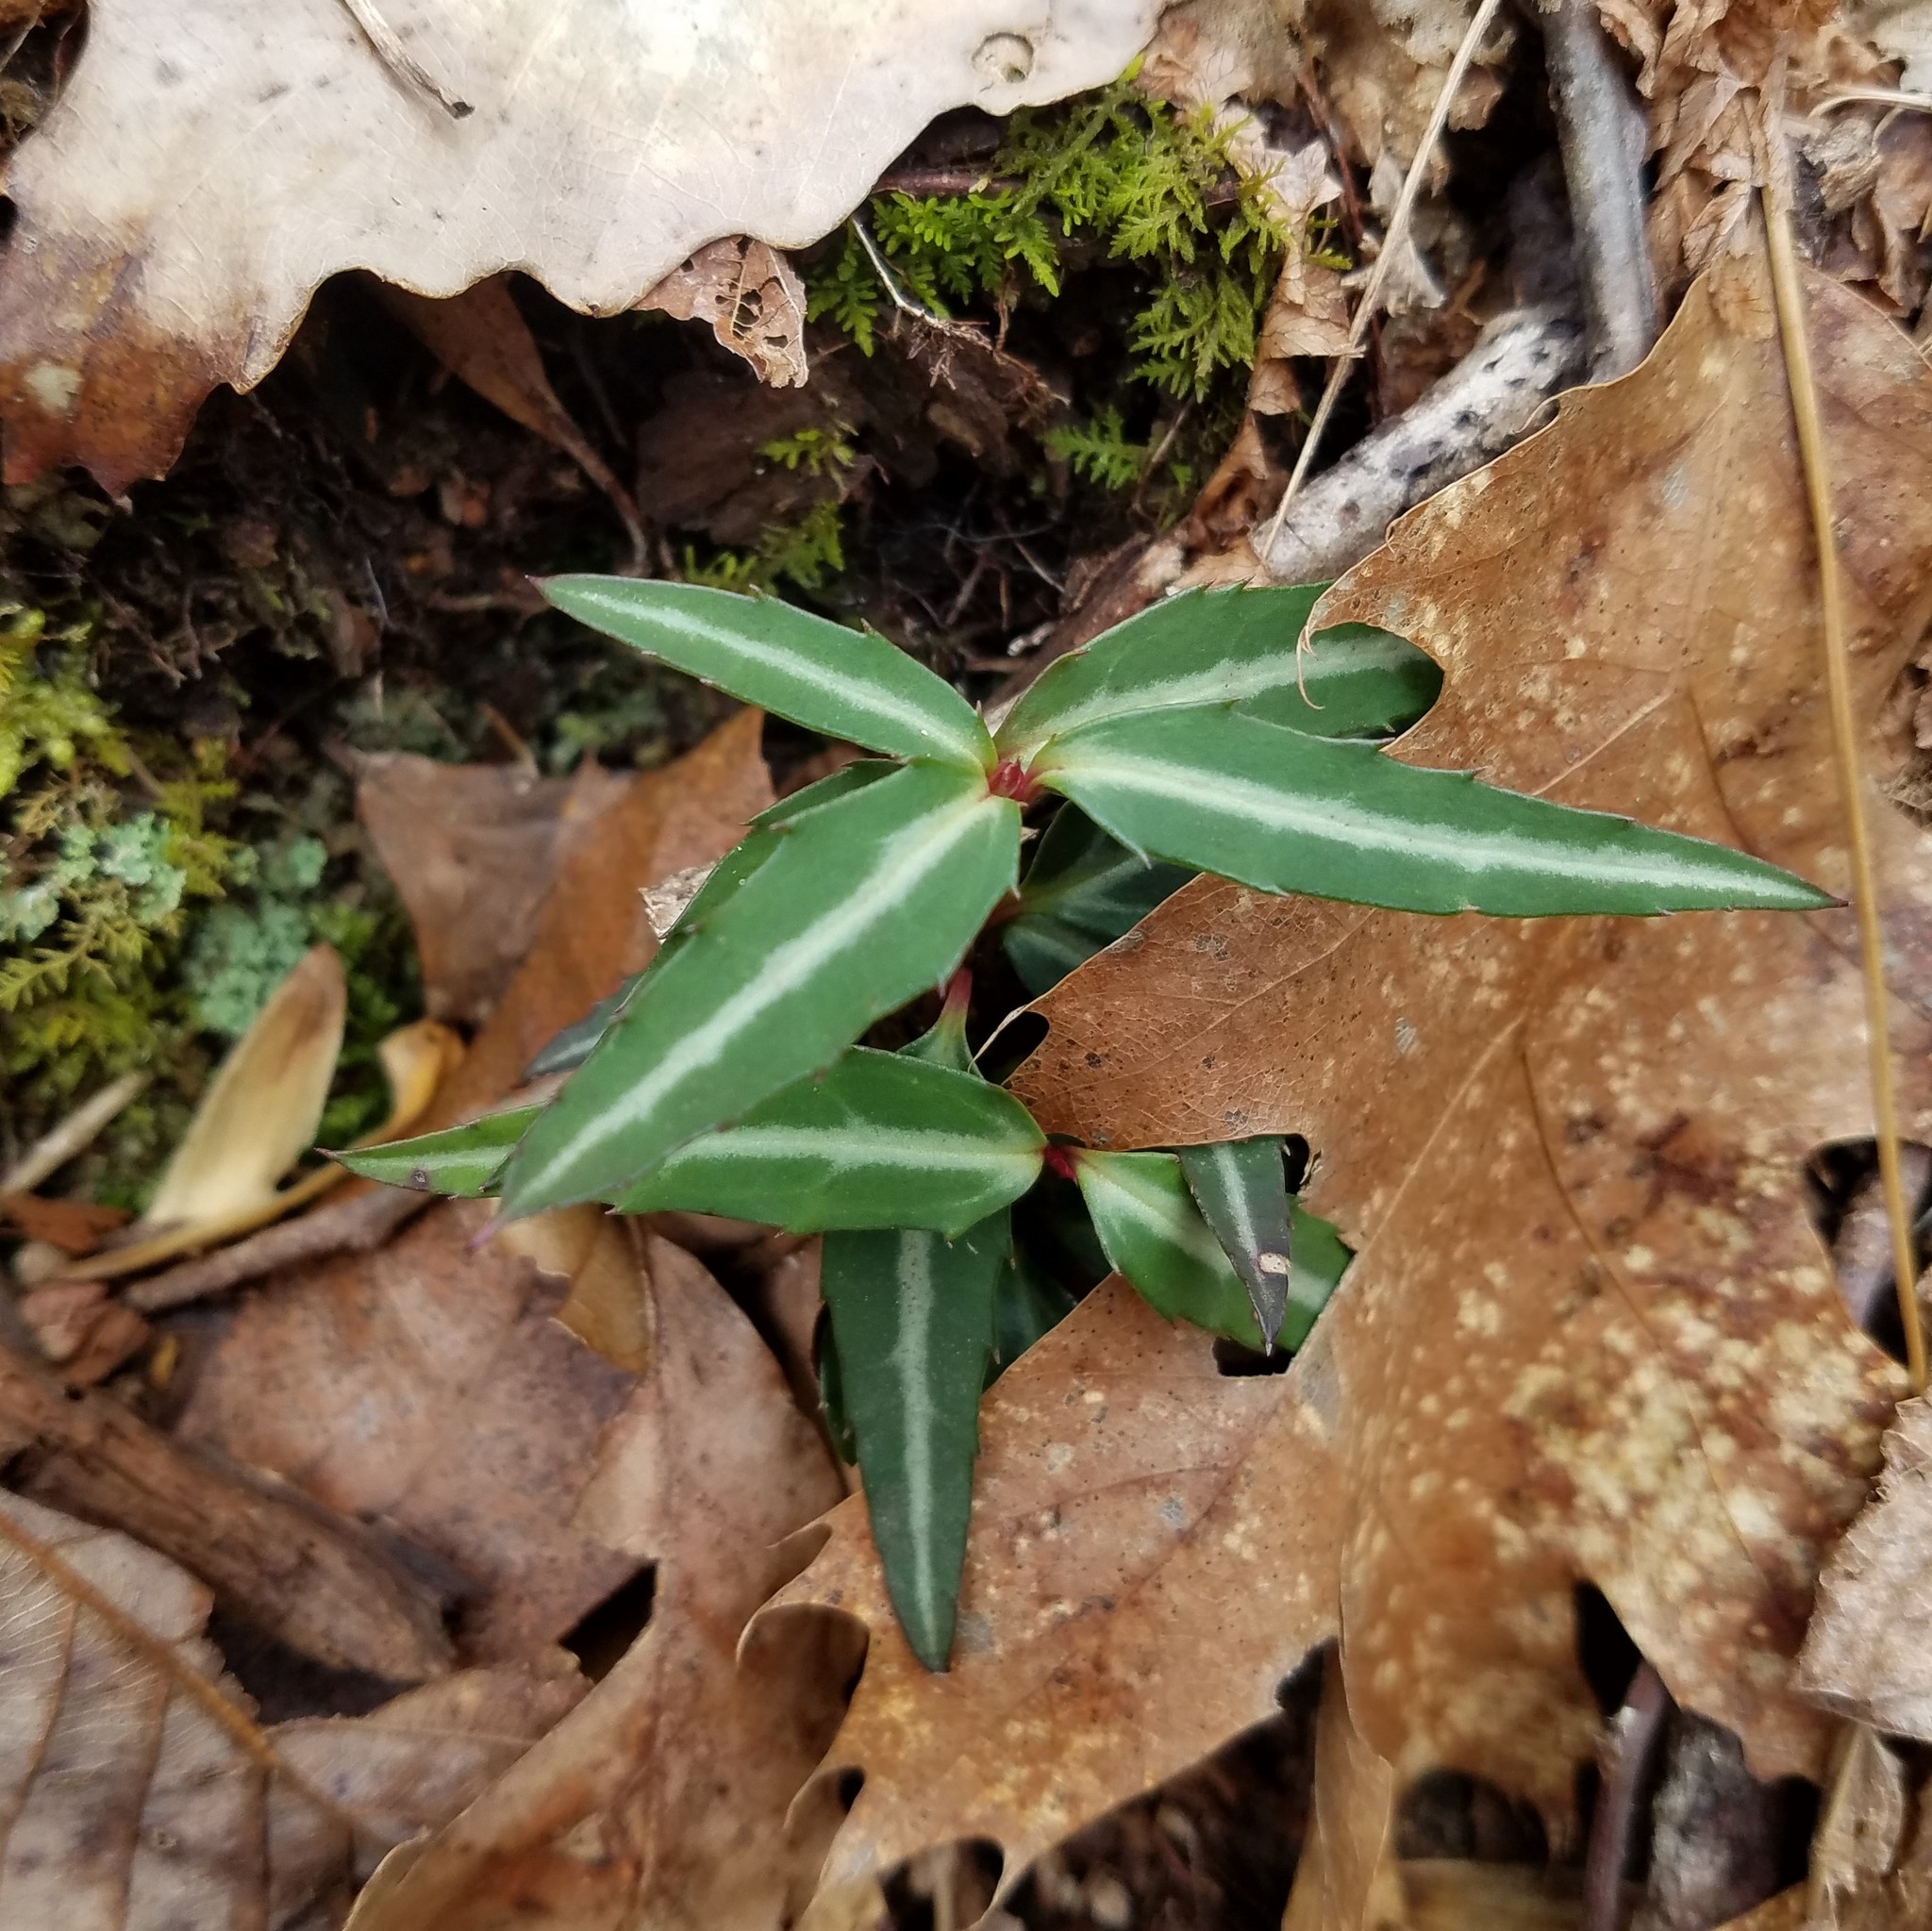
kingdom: Plantae
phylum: Tracheophyta
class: Magnoliopsida
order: Ericales
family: Ericaceae
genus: Chimaphila
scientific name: Chimaphila maculata
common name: Spotted pipsissewa
